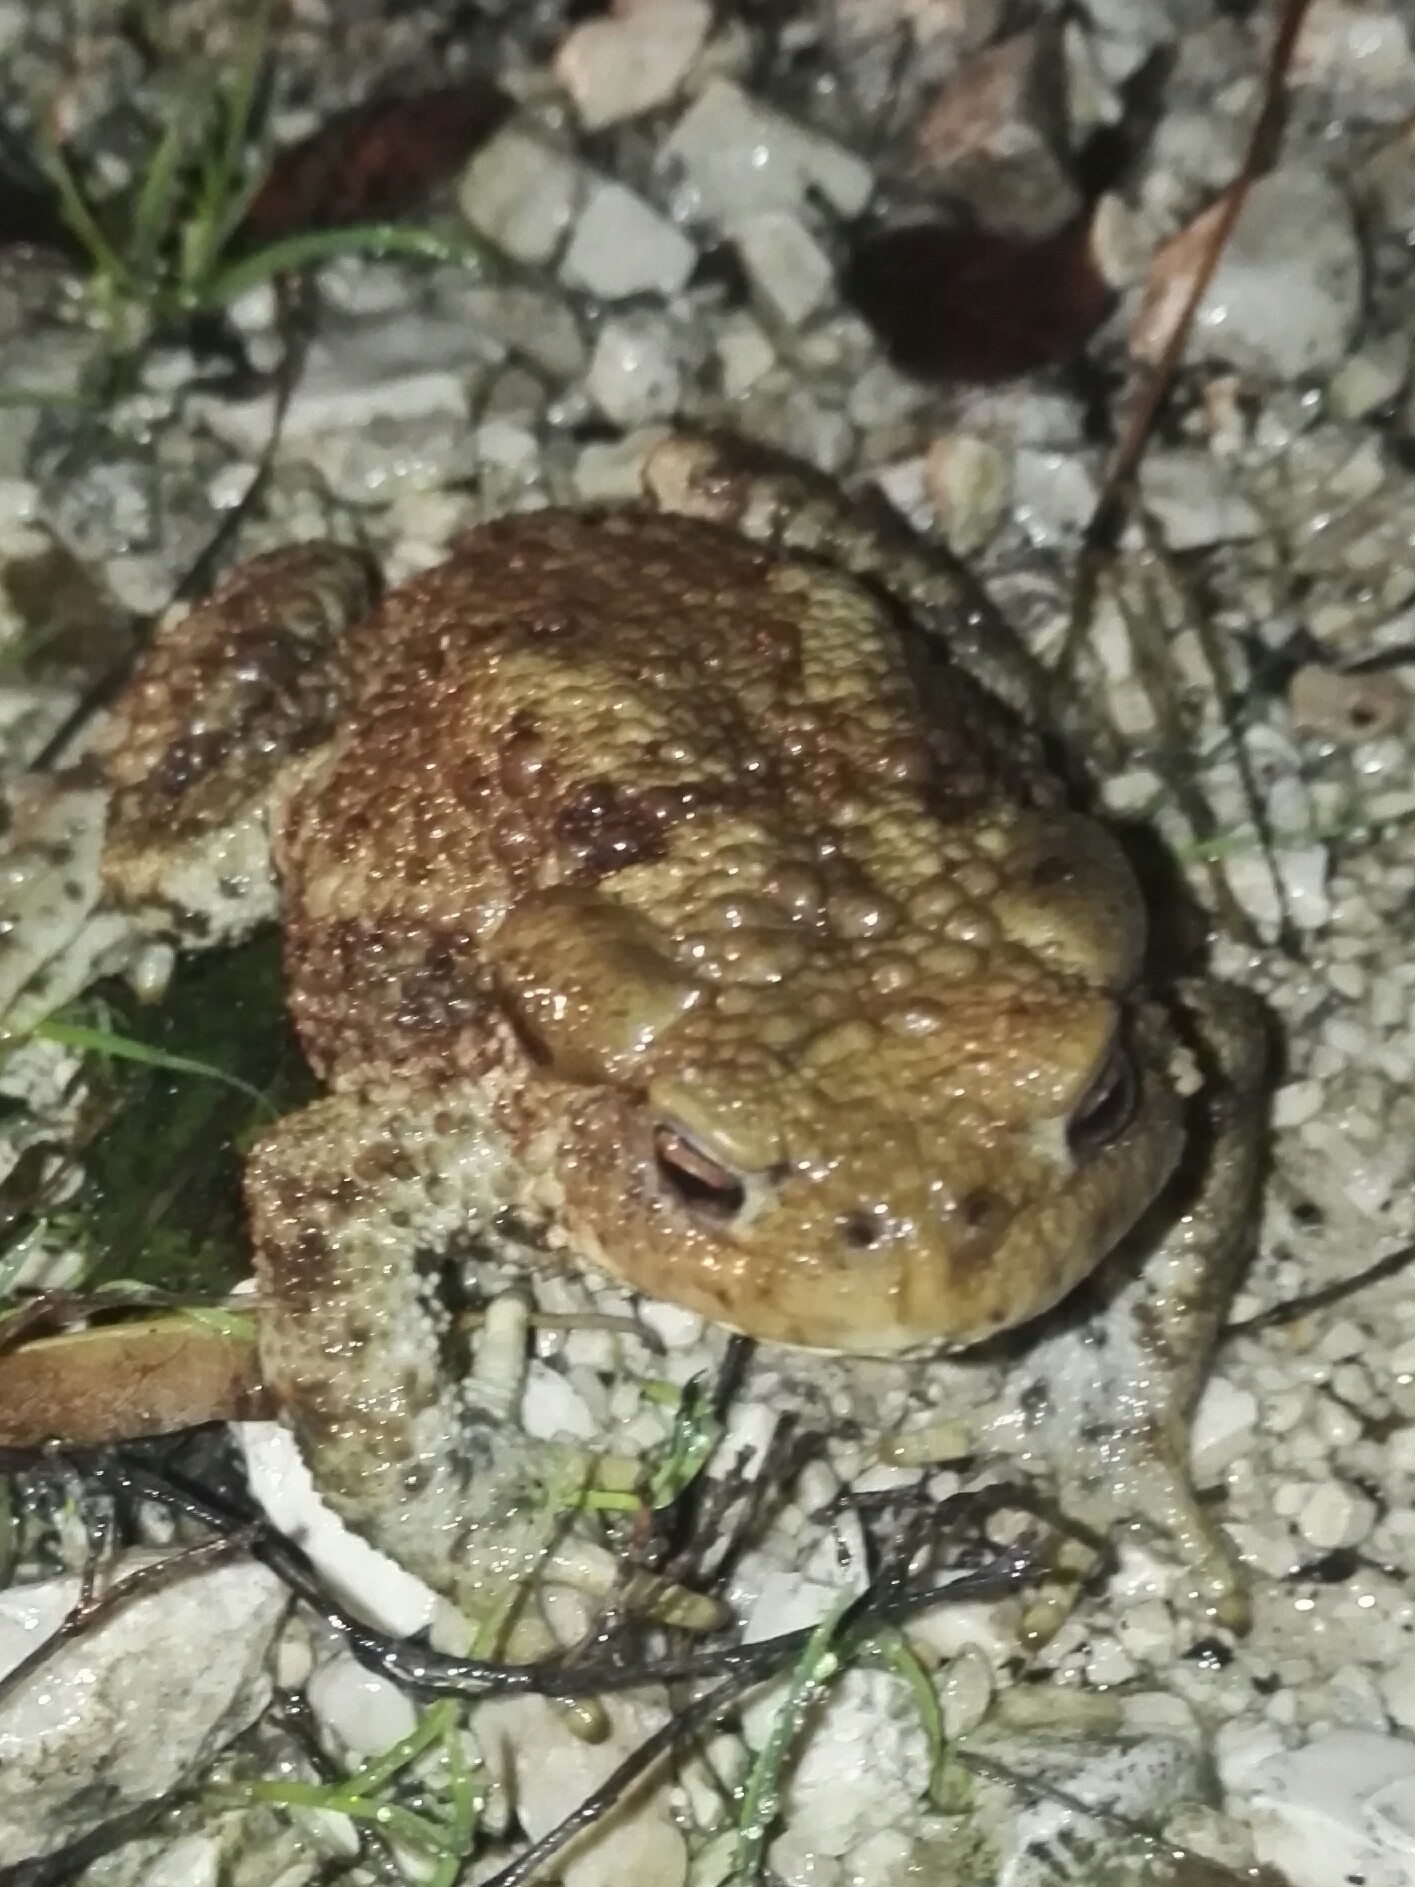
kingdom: Animalia
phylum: Chordata
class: Amphibia
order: Anura
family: Bufonidae
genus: Bufo
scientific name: Bufo bufo
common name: Common toad
